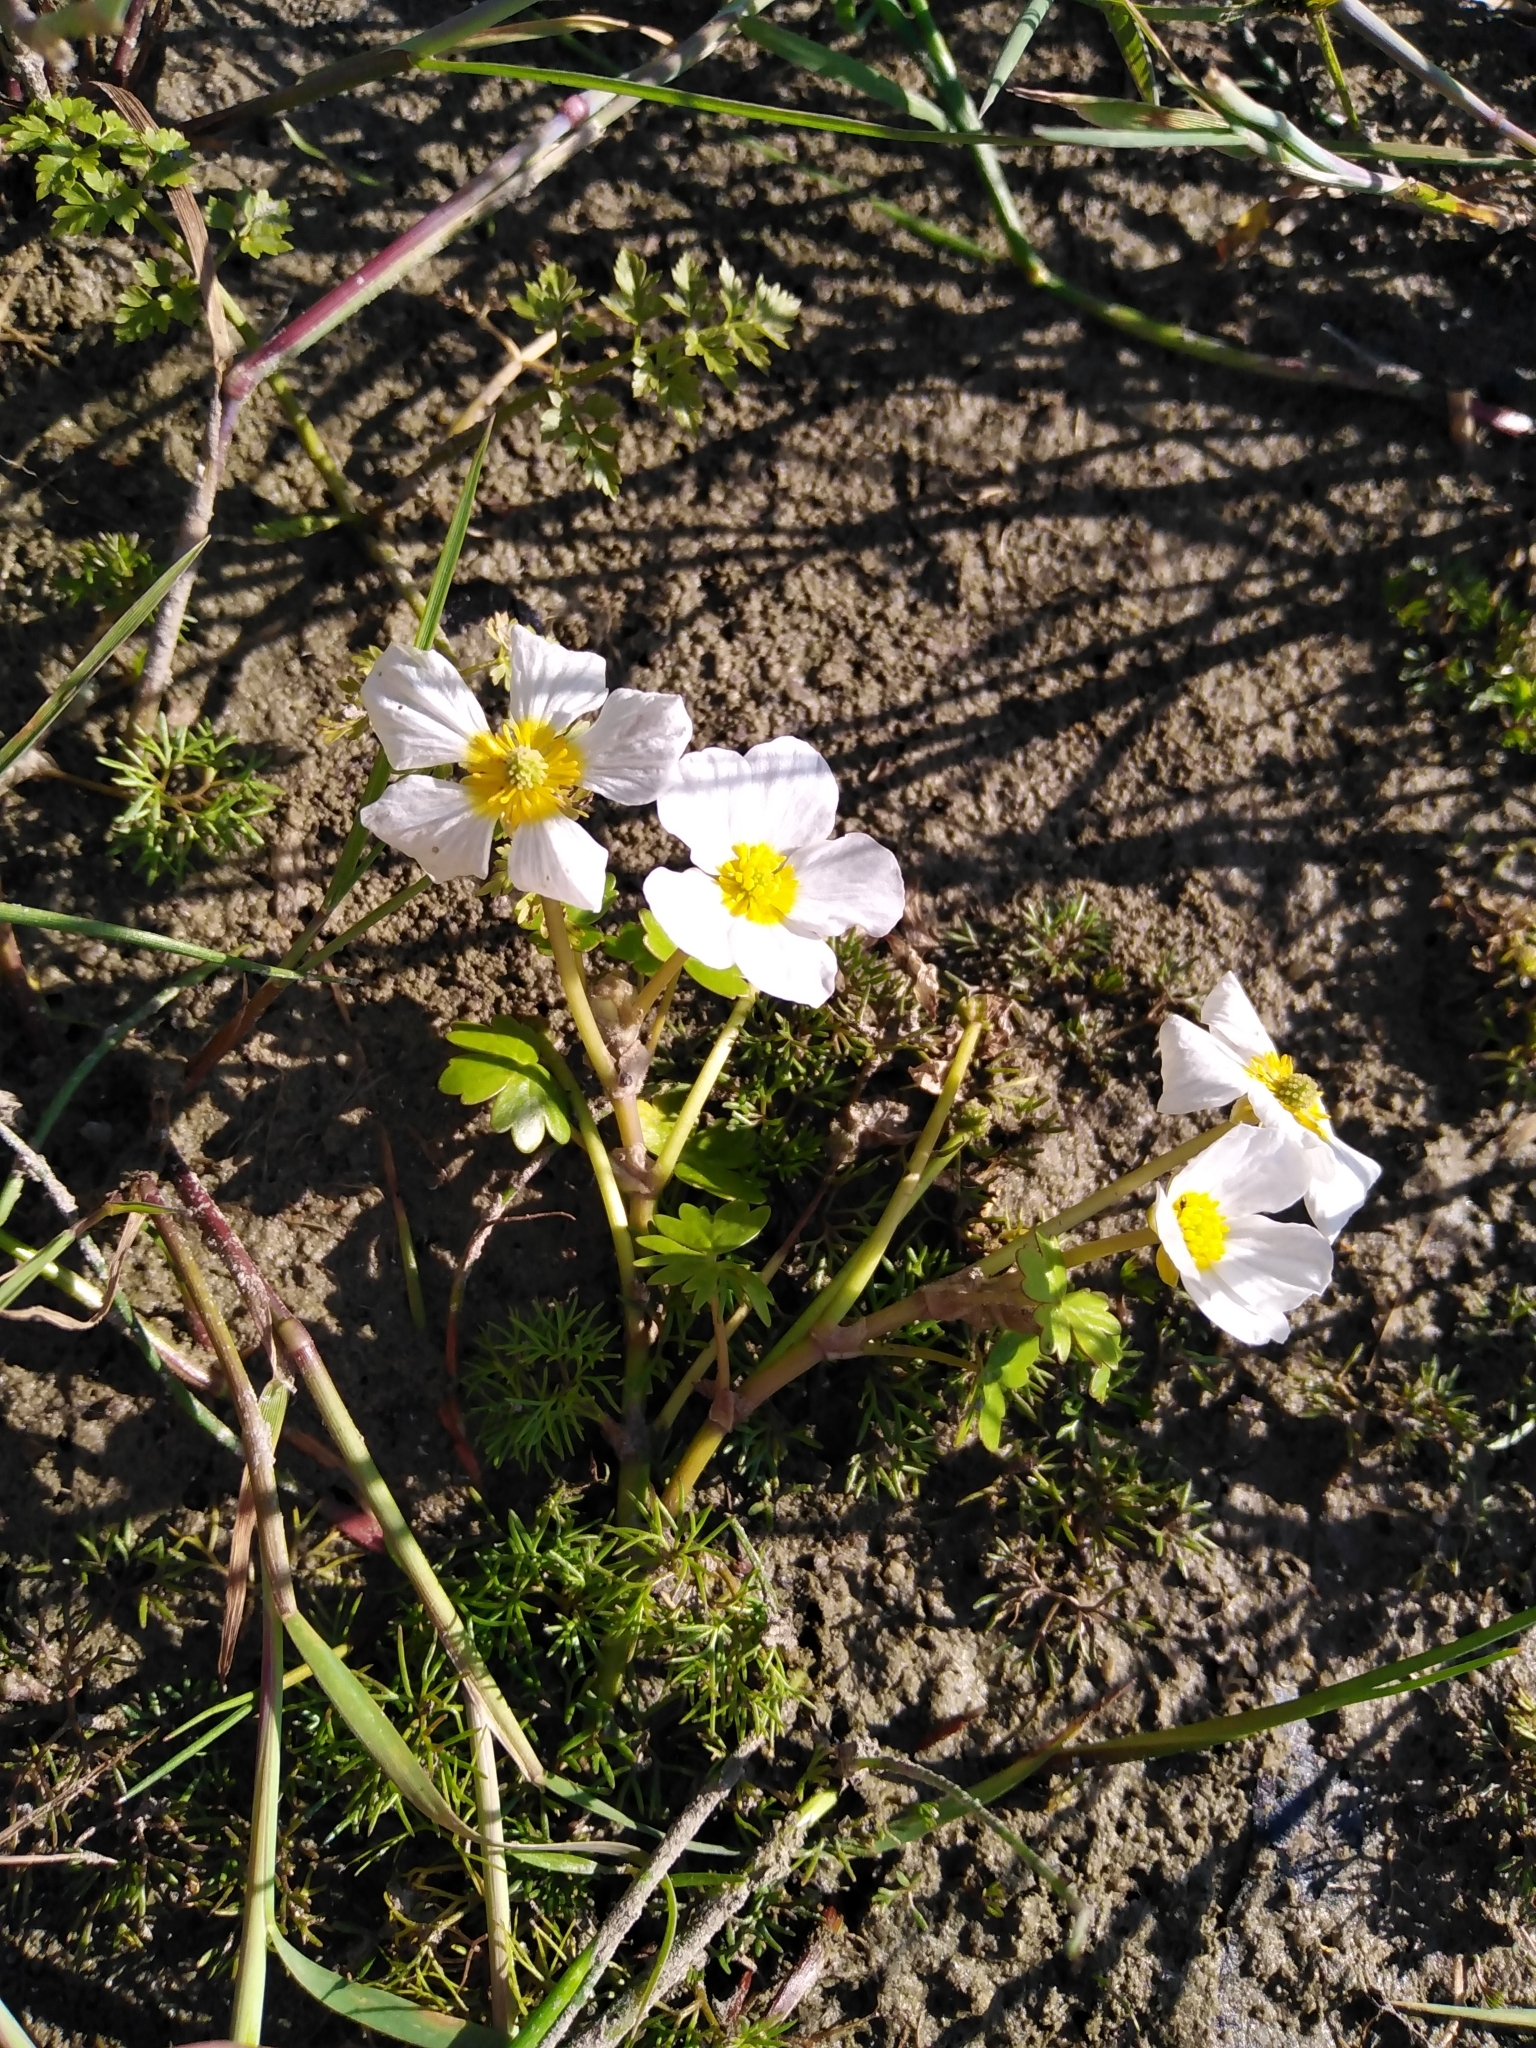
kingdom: Plantae
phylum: Tracheophyta
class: Magnoliopsida
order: Ranunculales
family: Ranunculaceae
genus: Ranunculus
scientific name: Ranunculus peltatus
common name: Pond water-crowfoot
